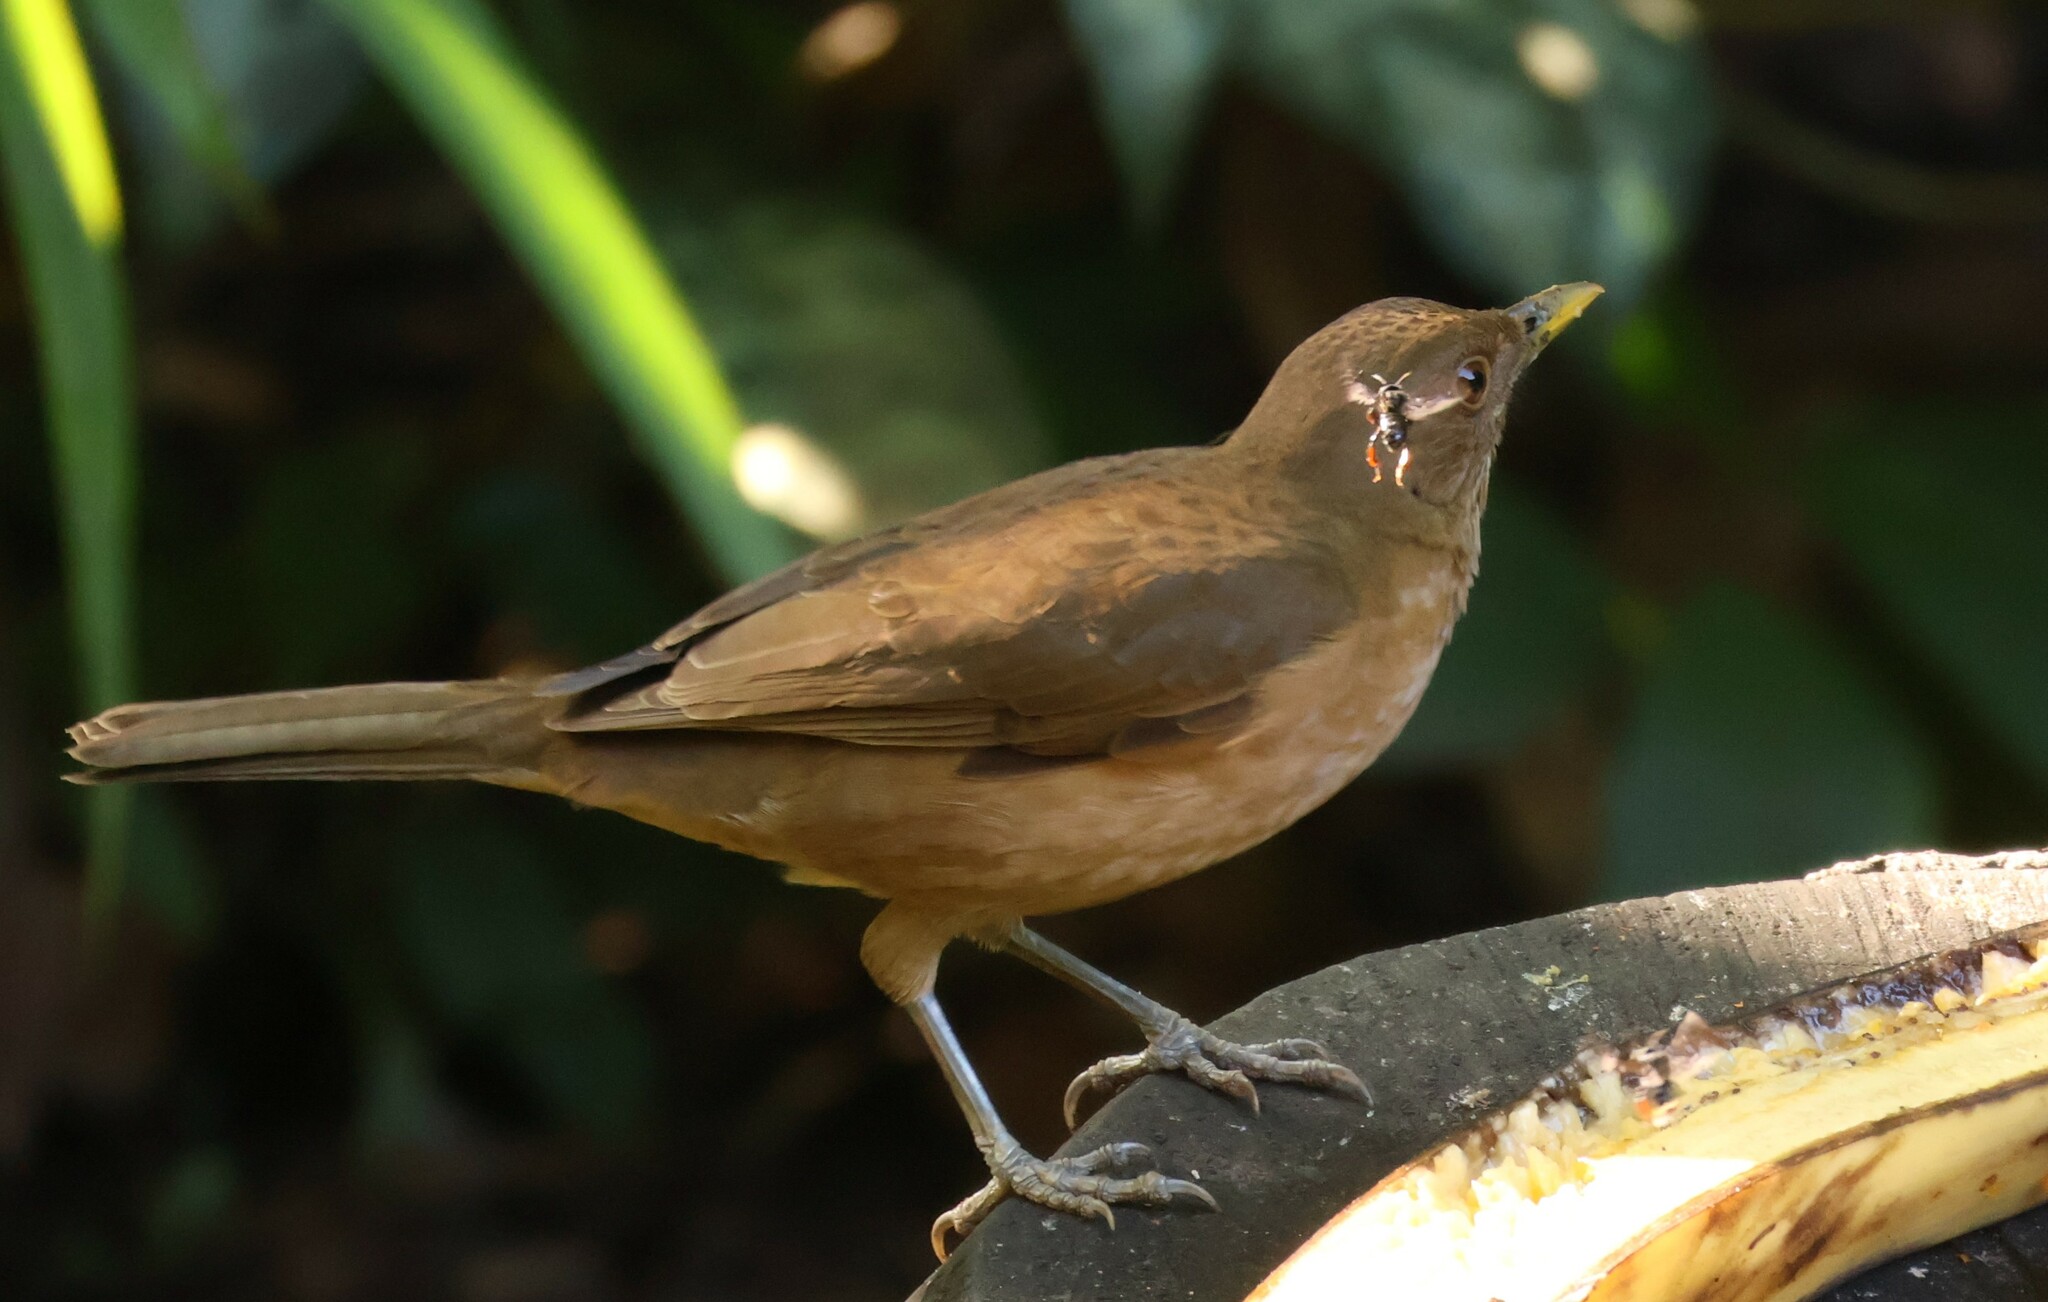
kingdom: Animalia
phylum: Chordata
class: Aves
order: Passeriformes
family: Turdidae
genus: Turdus
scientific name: Turdus grayi
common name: Clay-colored thrush
